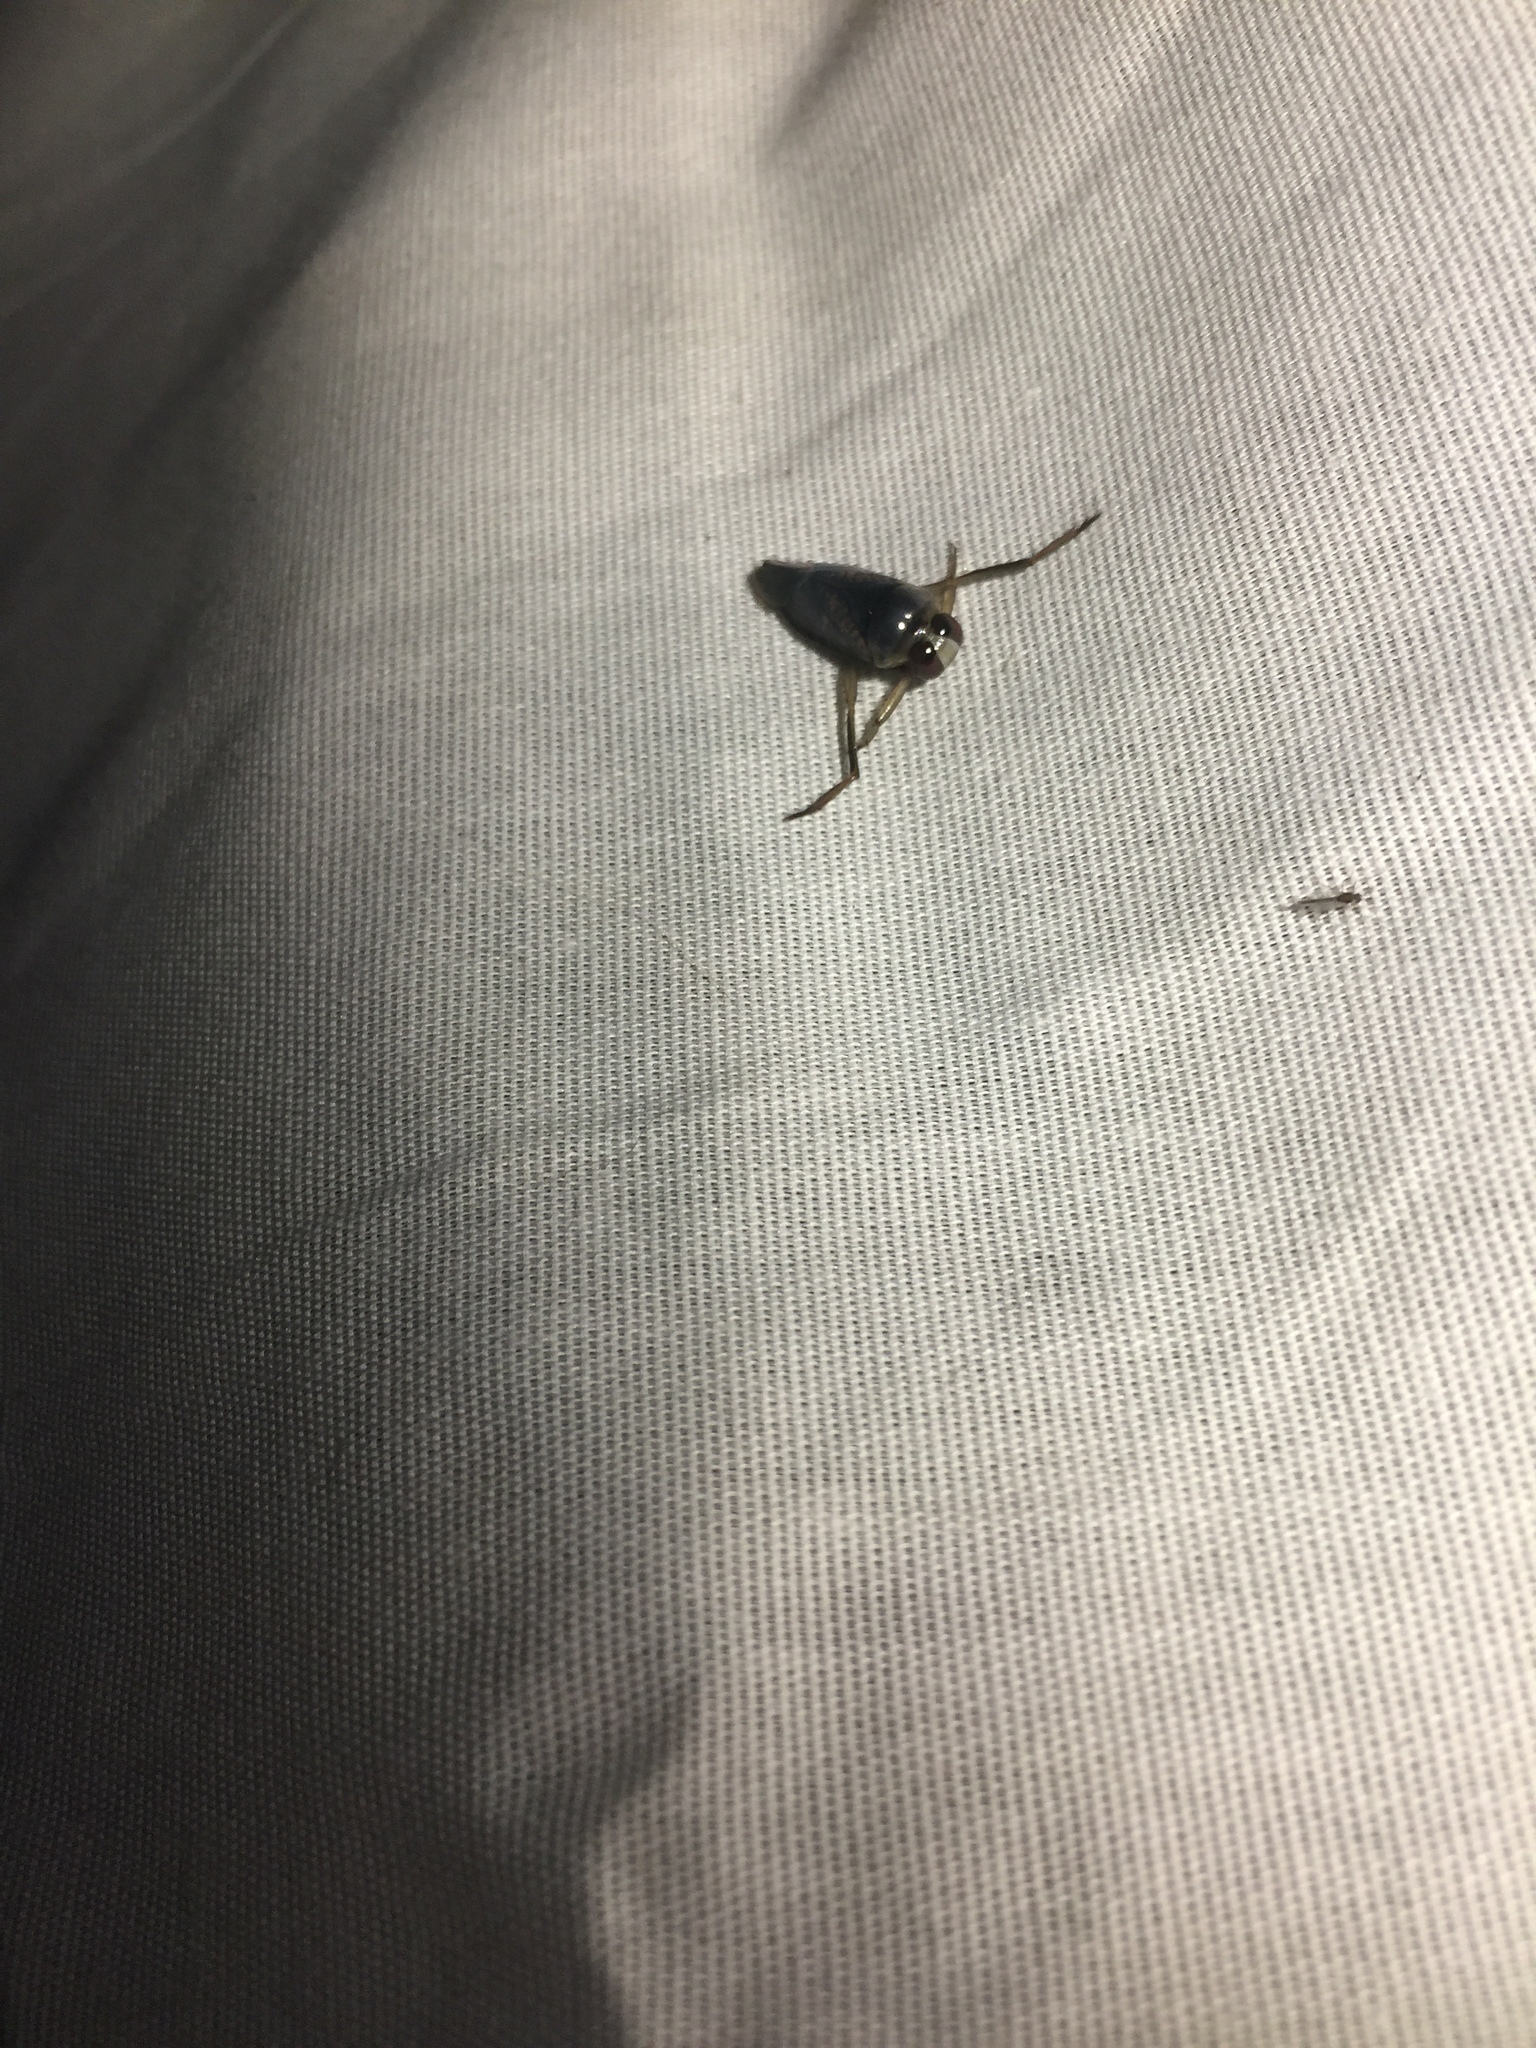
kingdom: Animalia
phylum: Arthropoda
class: Insecta
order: Hemiptera
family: Notonectidae
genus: Notonecta
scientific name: Notonecta irrorata
